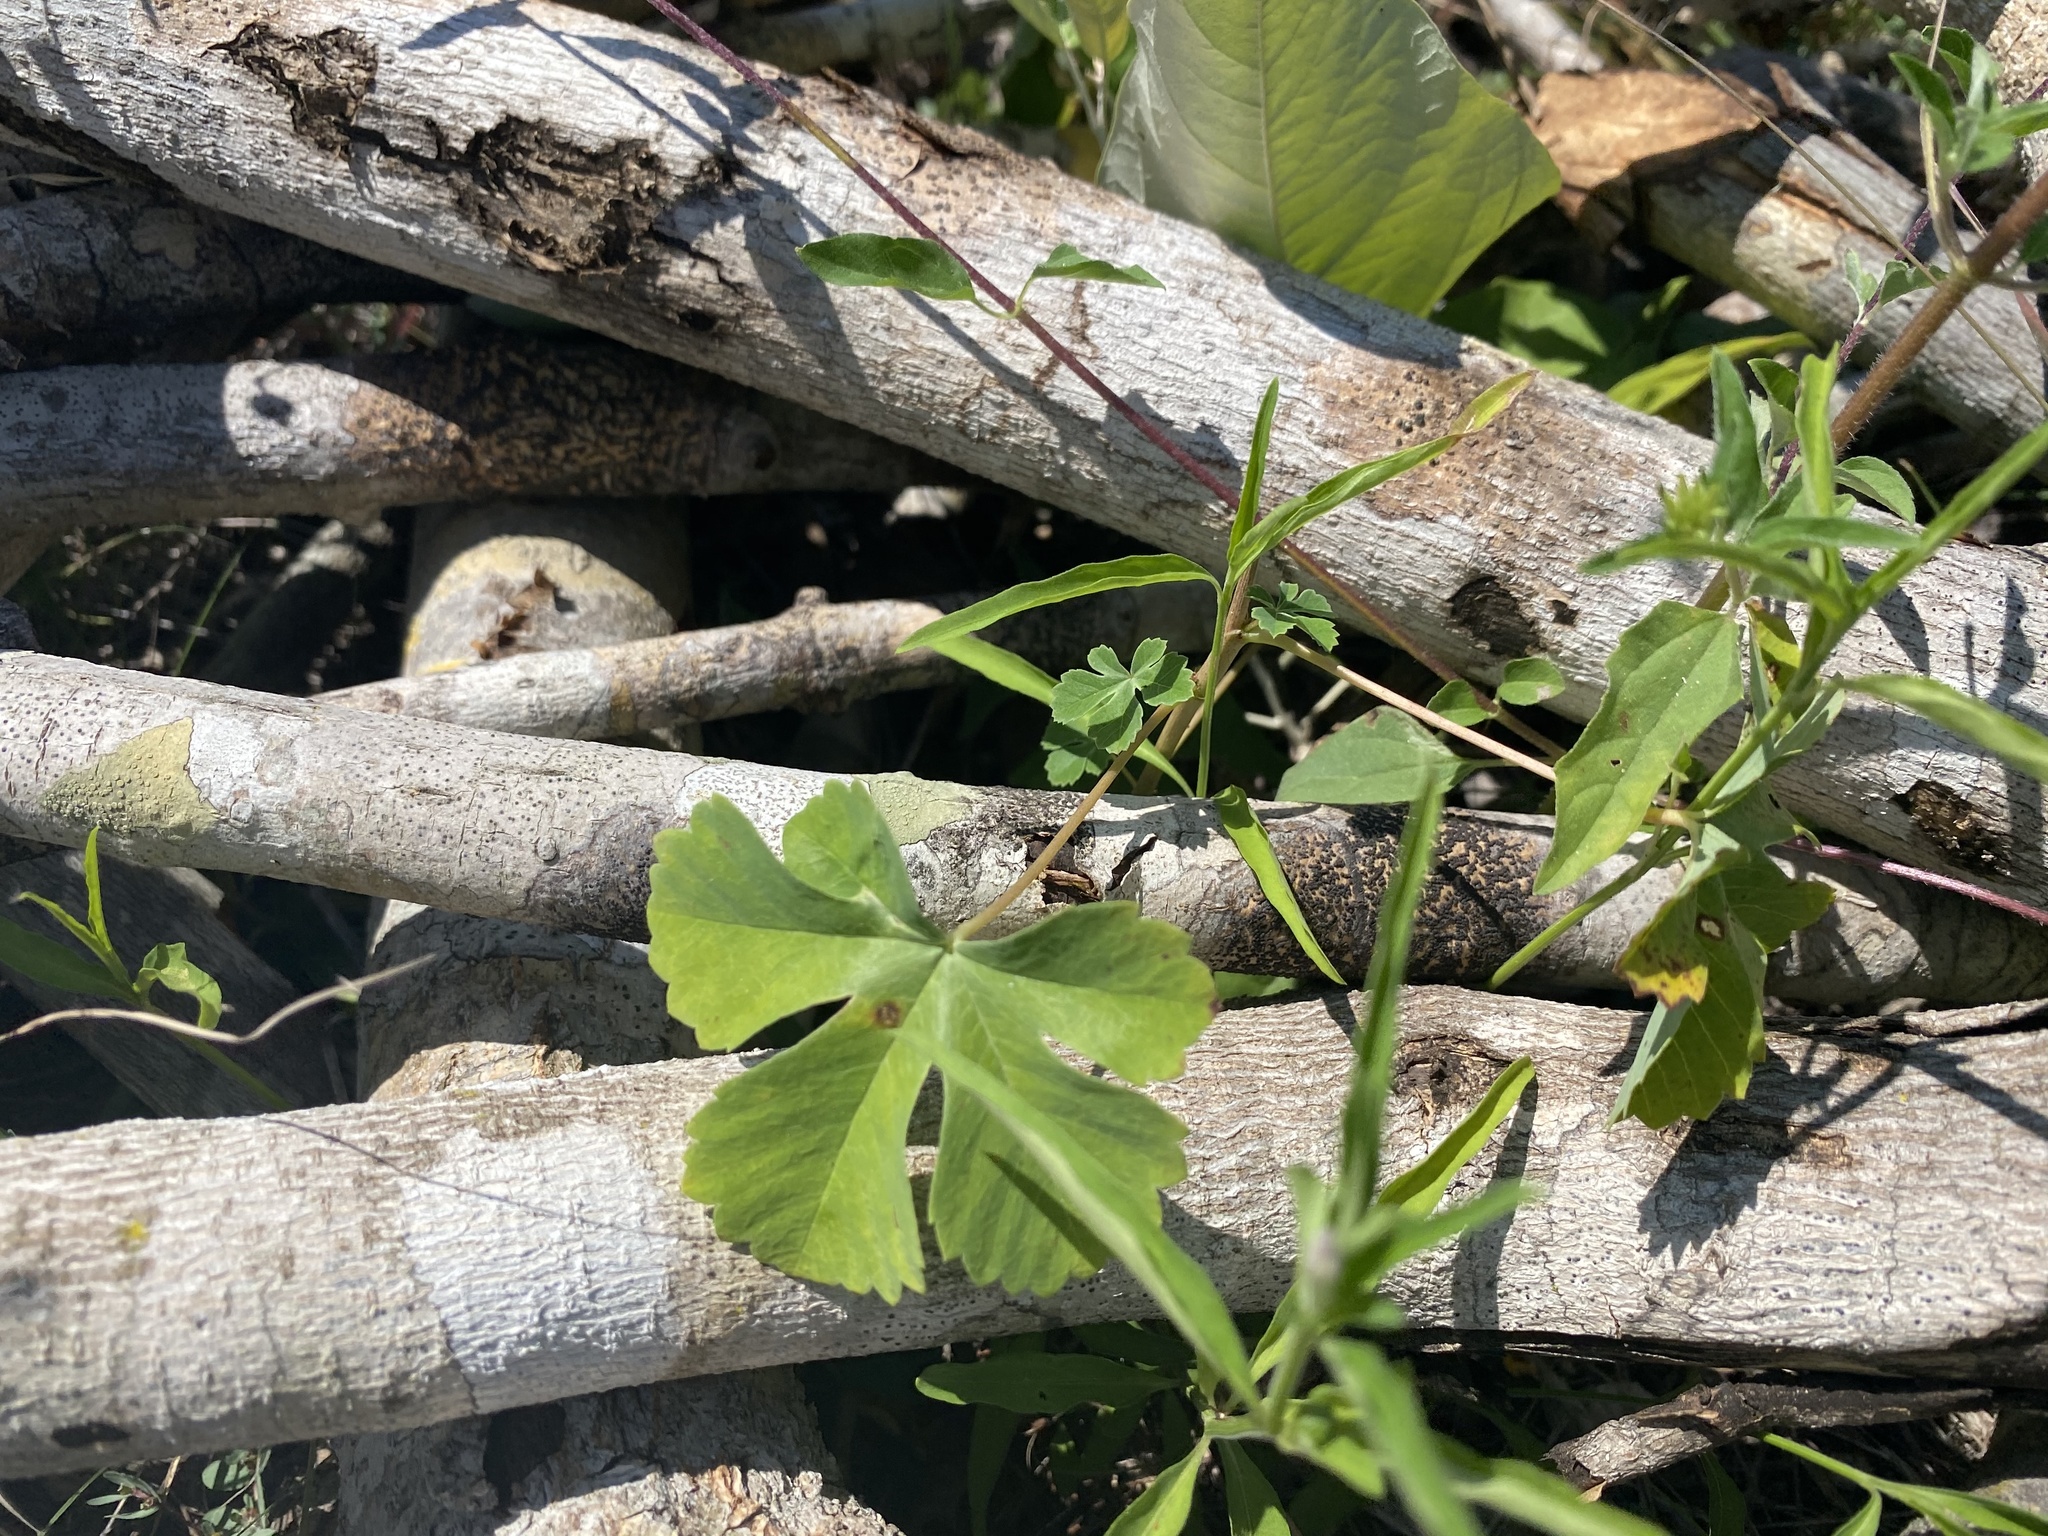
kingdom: Plantae
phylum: Tracheophyta
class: Magnoliopsida
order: Malvales
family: Cochlospermaceae
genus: Cochlospermum
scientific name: Cochlospermum wrightii
